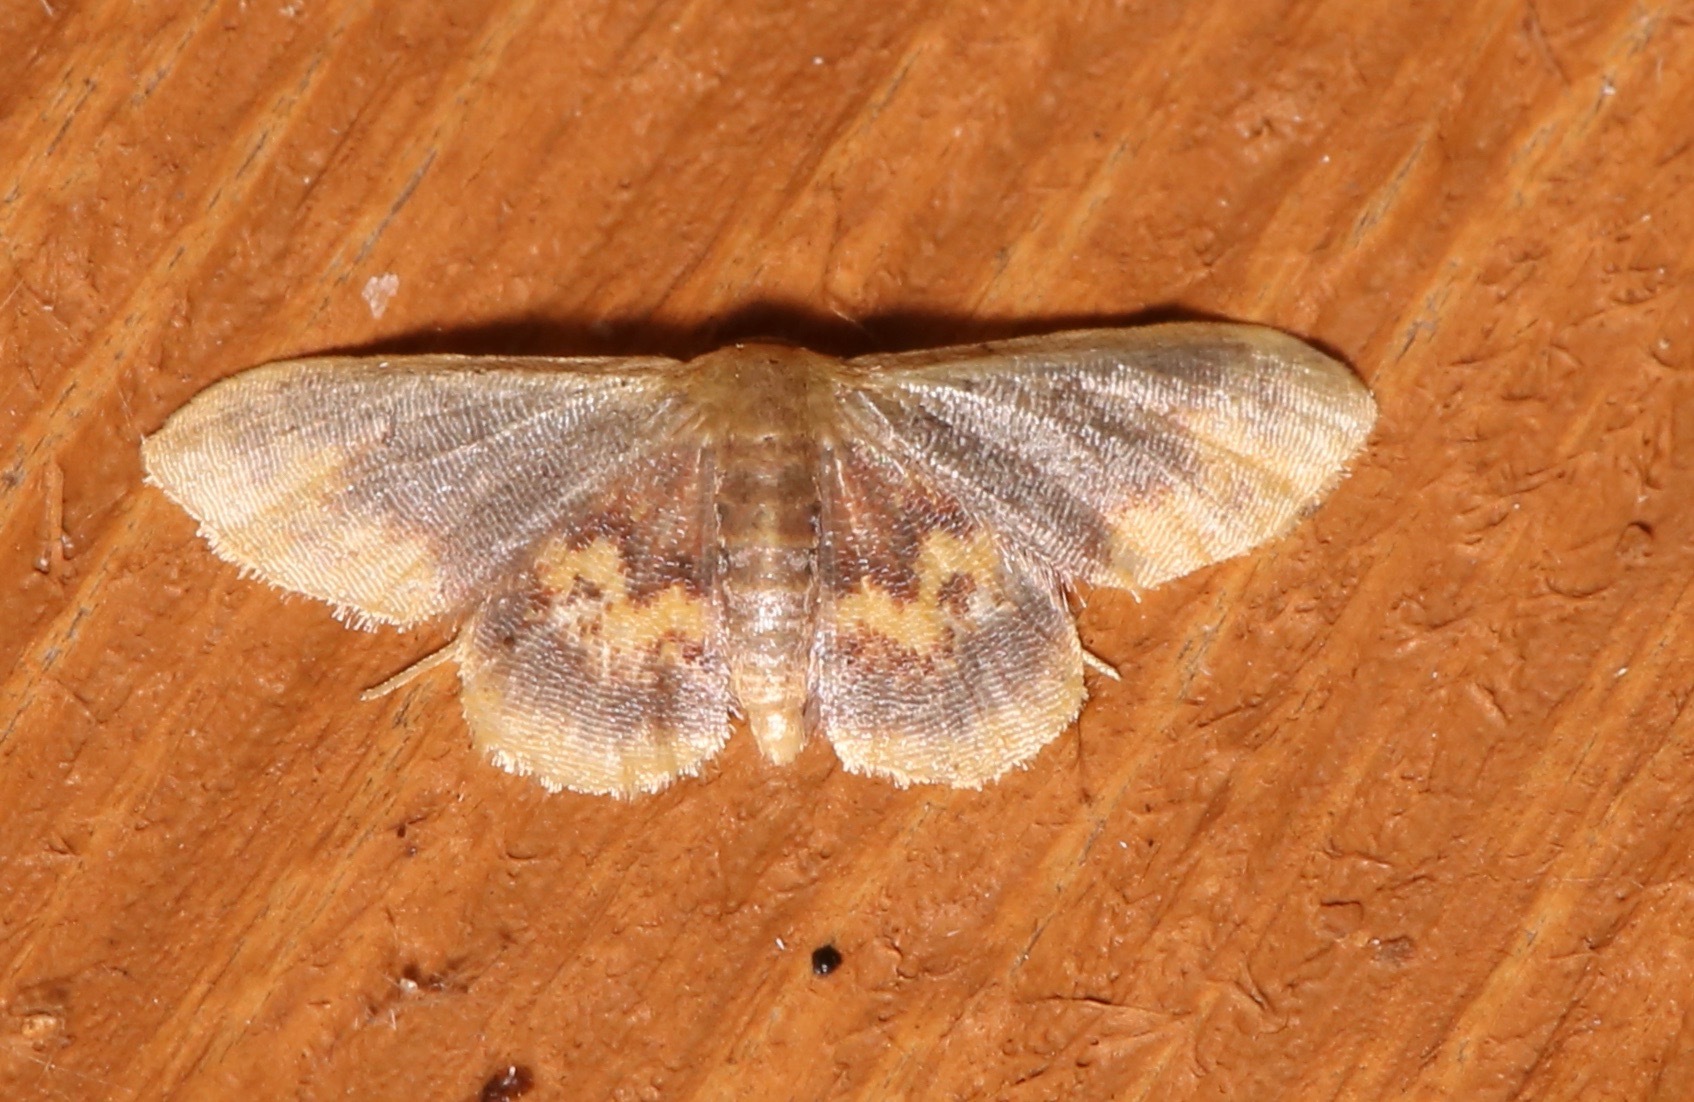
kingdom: Animalia
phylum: Arthropoda
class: Insecta
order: Lepidoptera
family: Geometridae
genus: Idaea
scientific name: Idaea scintillularia
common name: Diminutive wave
